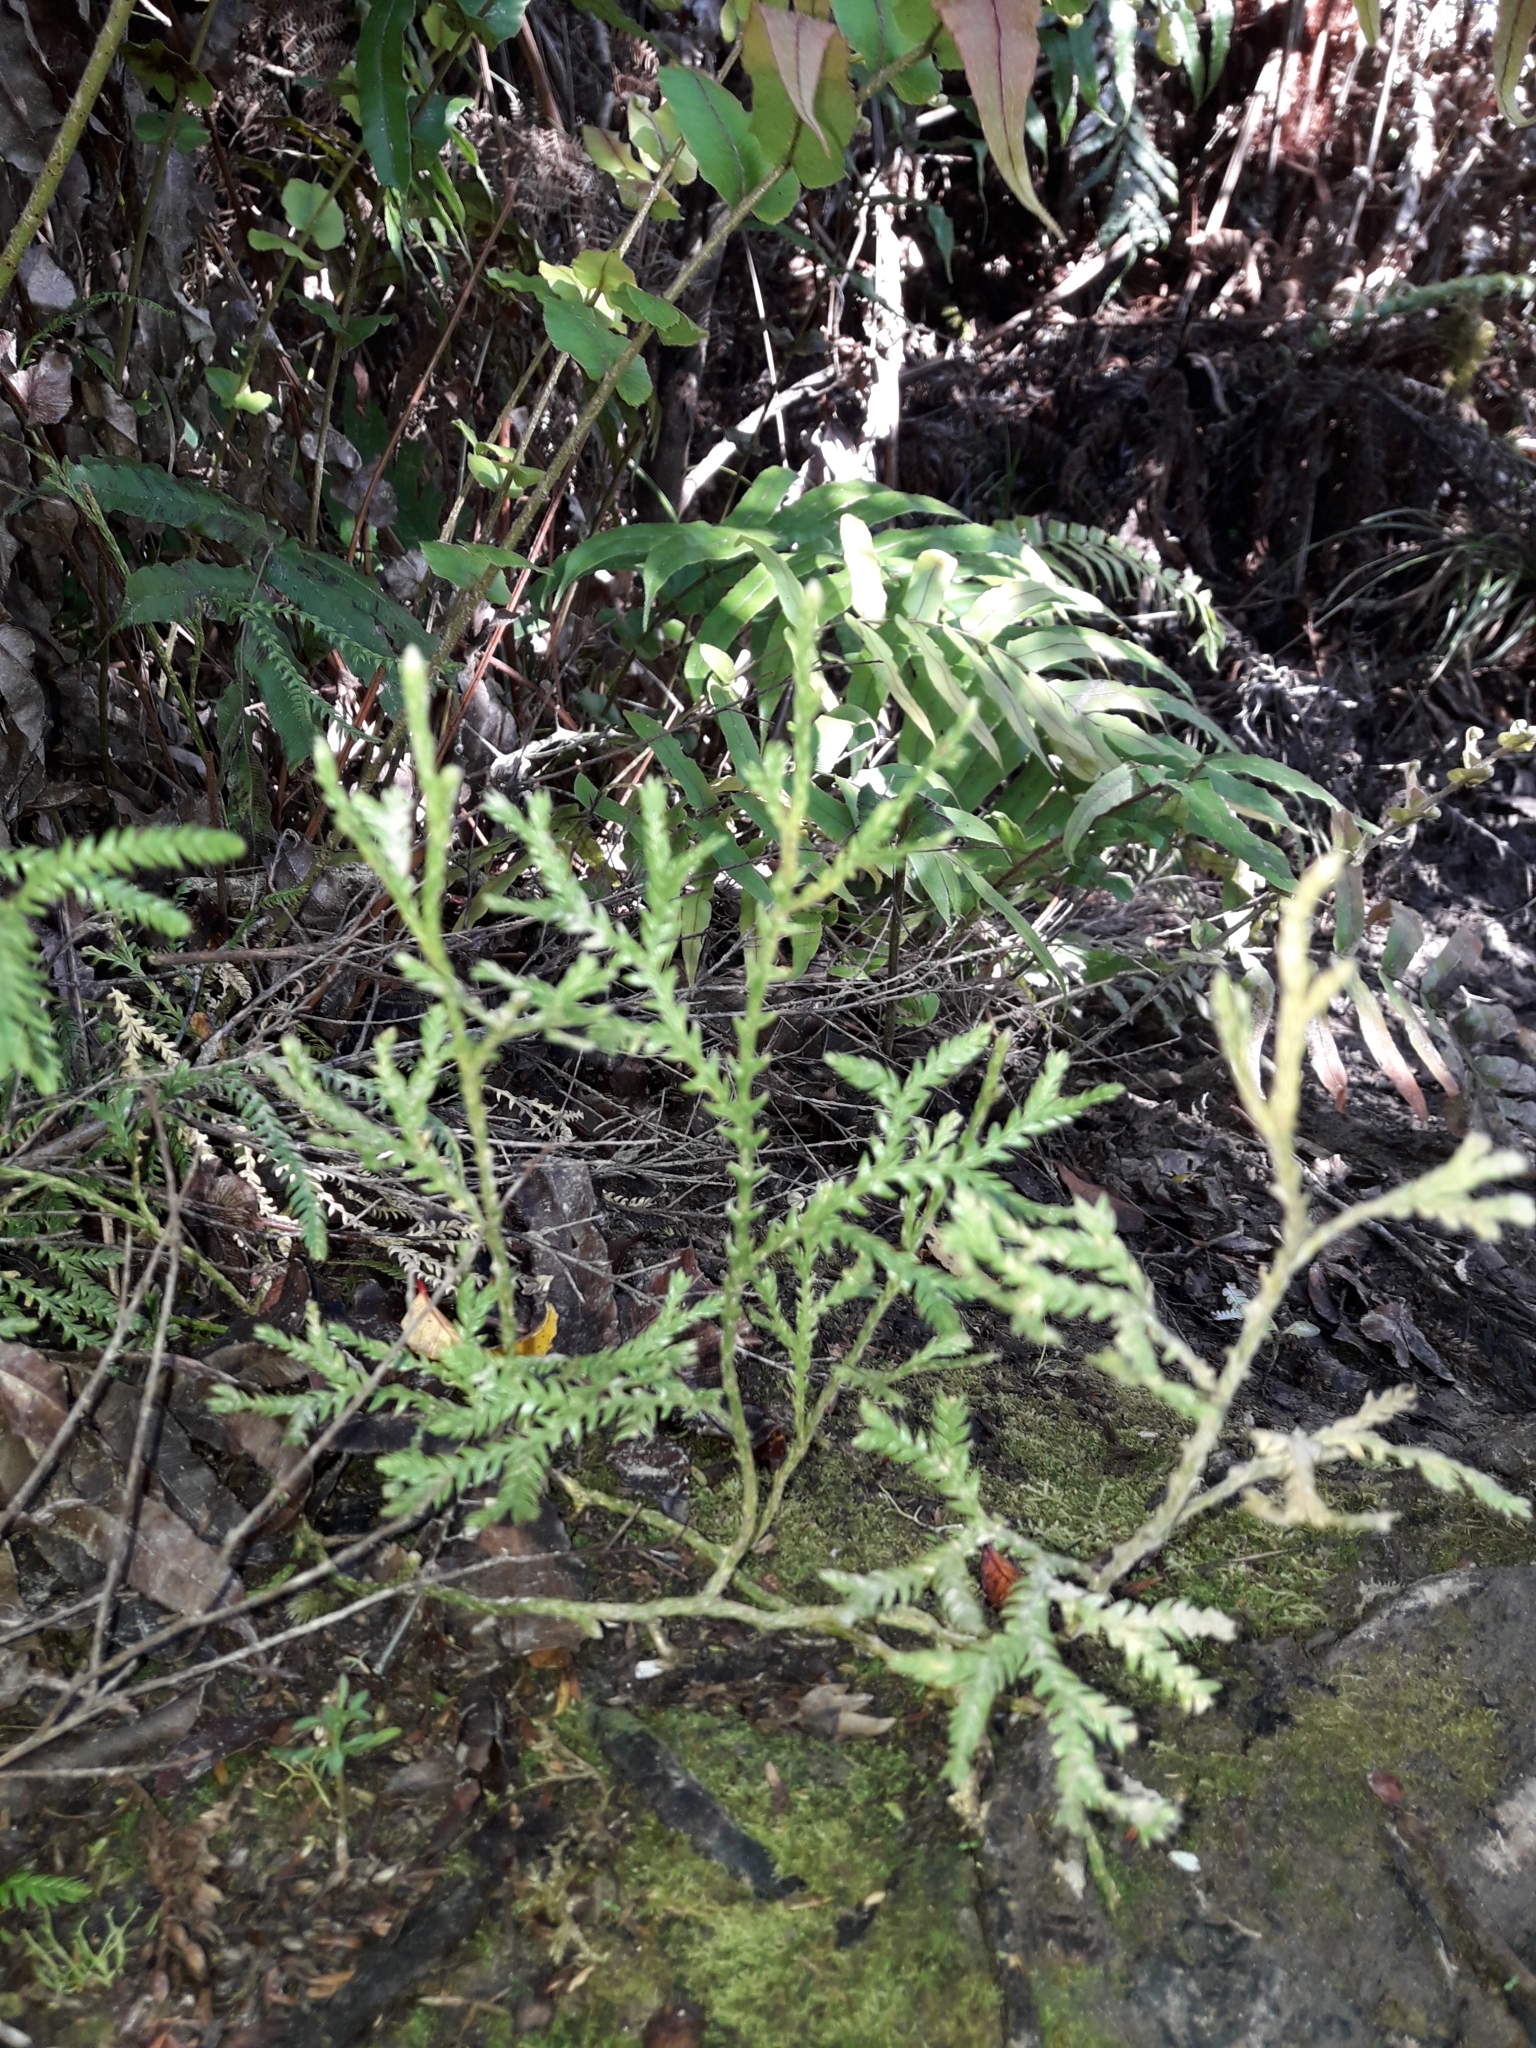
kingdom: Plantae
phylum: Tracheophyta
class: Lycopodiopsida
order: Lycopodiales
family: Lycopodiaceae
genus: Diphasium
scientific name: Diphasium scariosum
